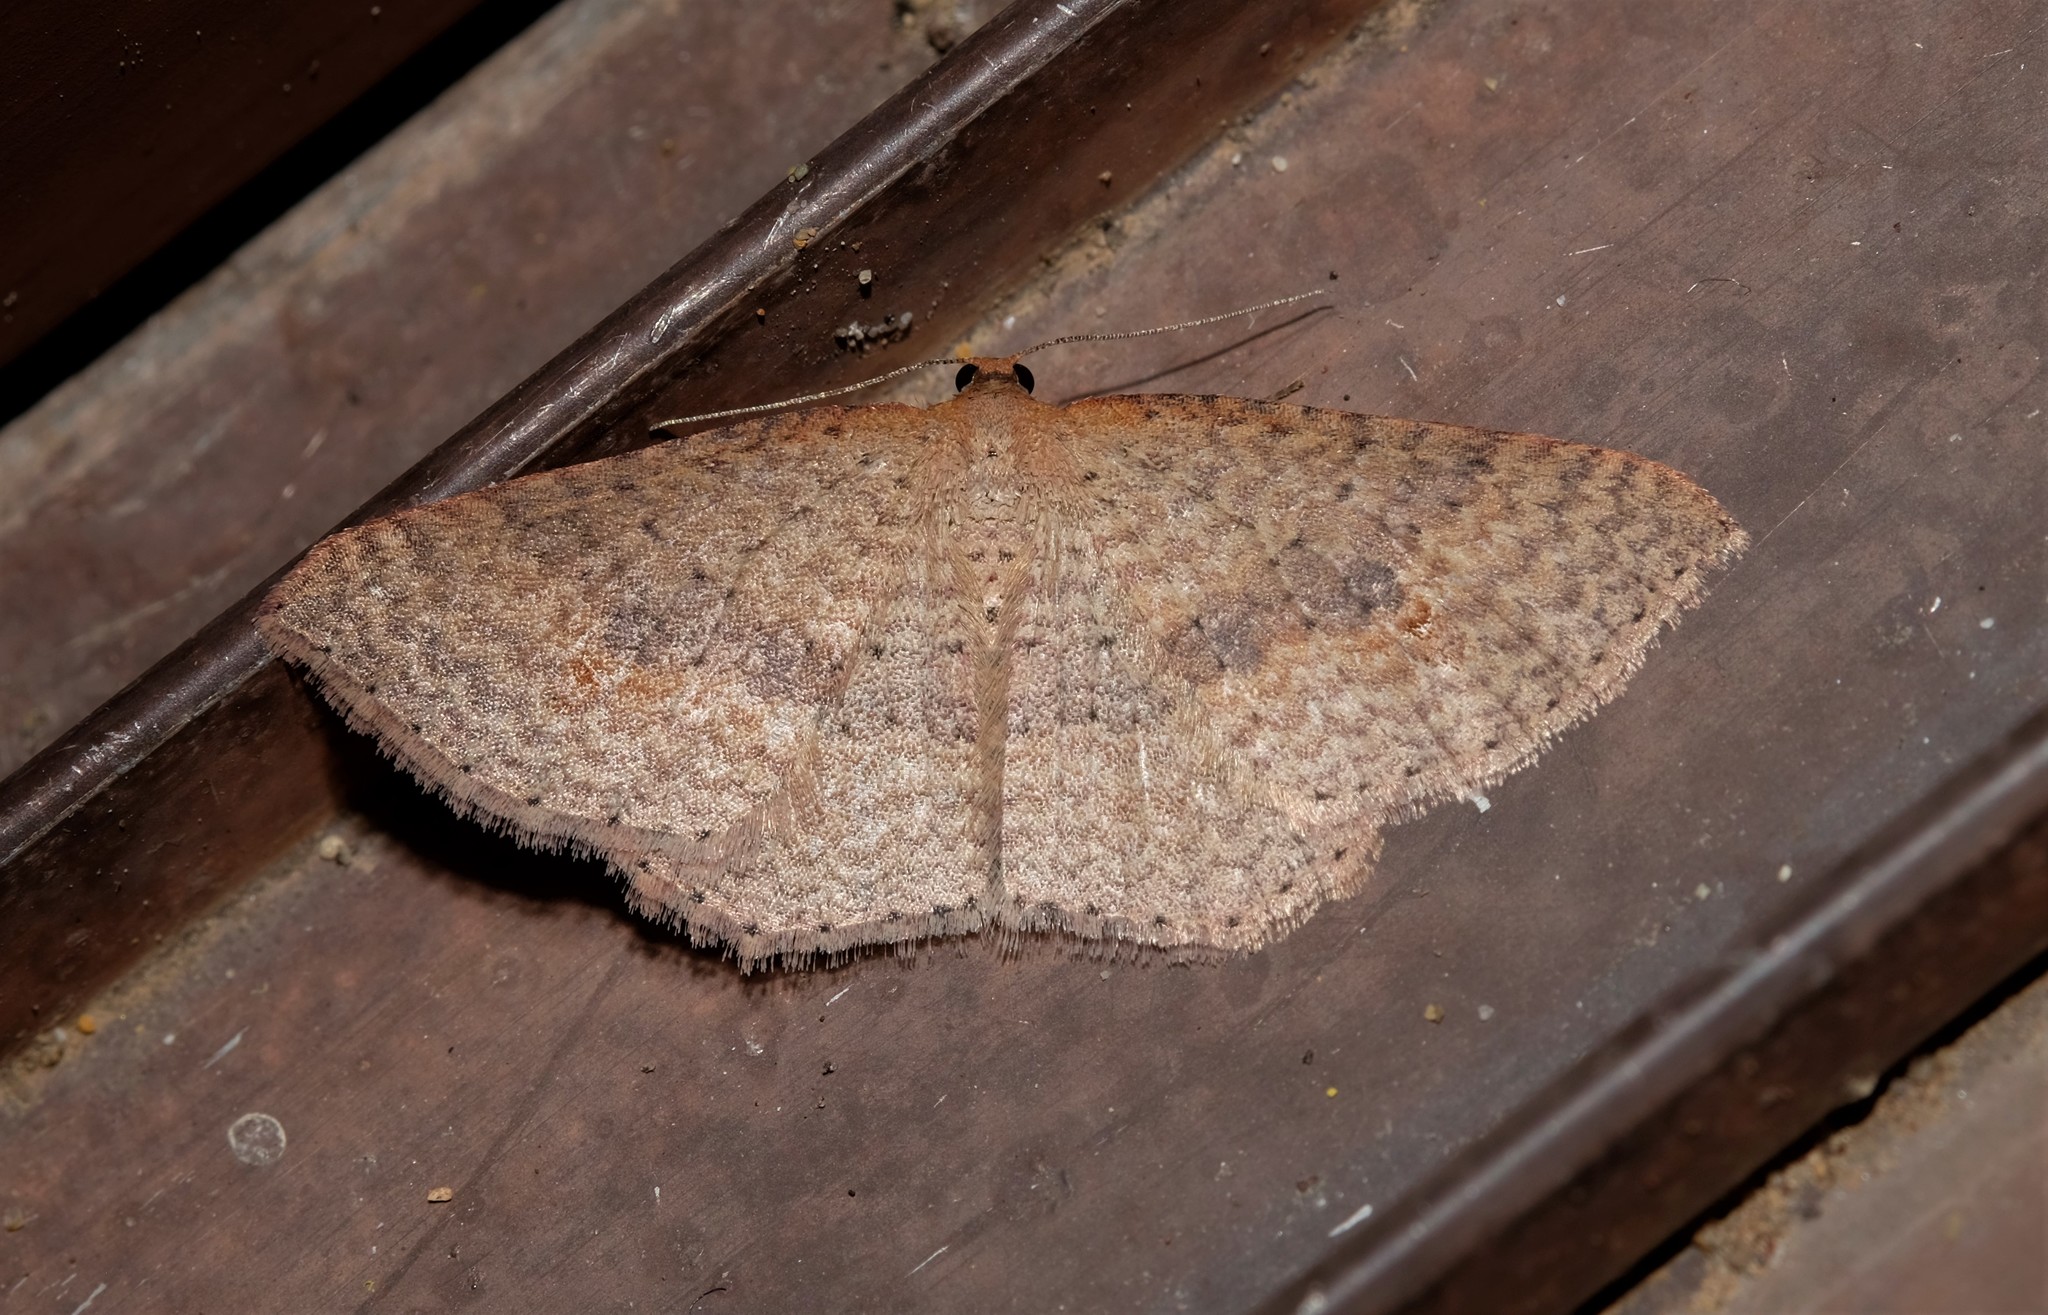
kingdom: Animalia
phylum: Arthropoda
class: Insecta
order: Lepidoptera
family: Geometridae
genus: Epicyme
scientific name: Epicyme rubropunctaria
